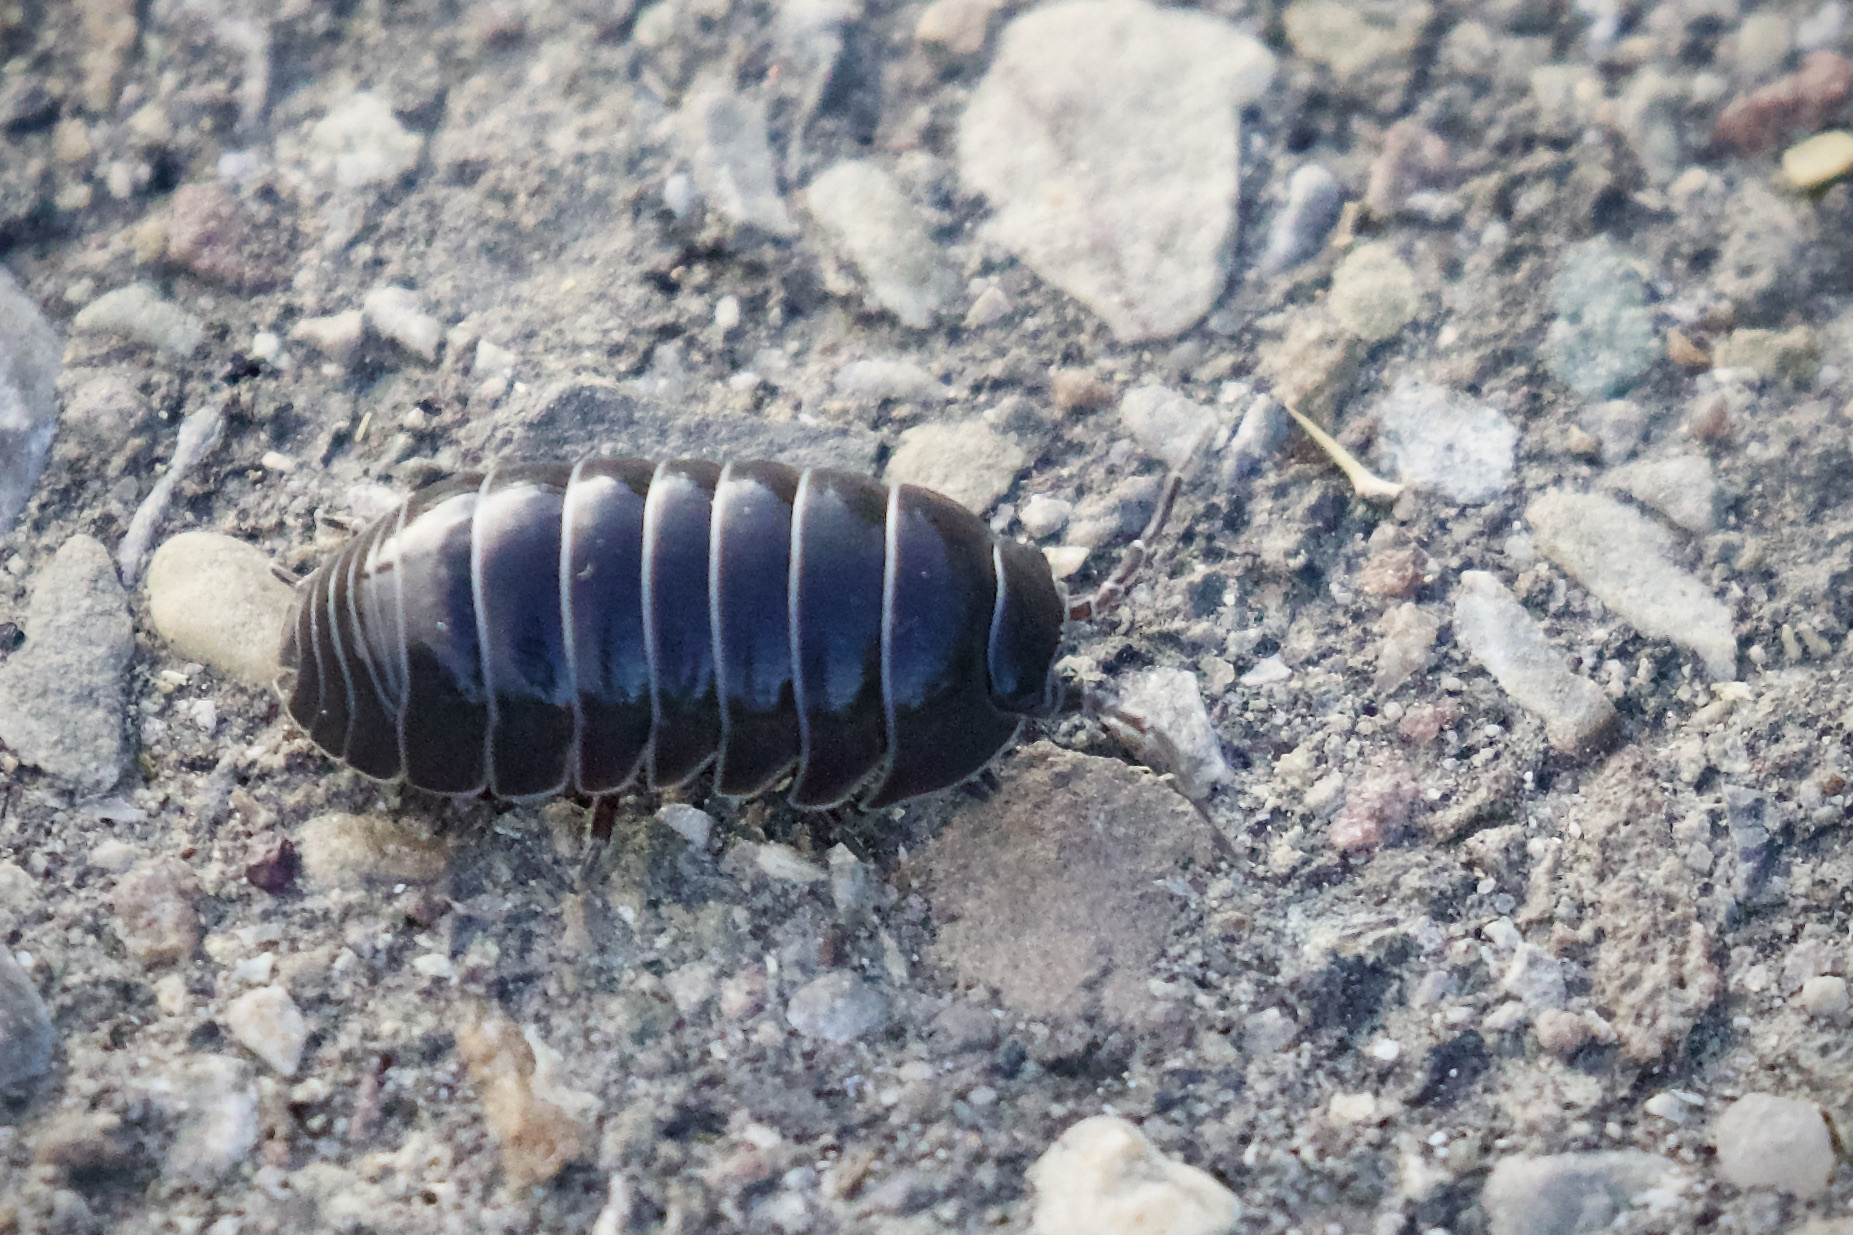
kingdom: Animalia
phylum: Arthropoda
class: Malacostraca
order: Isopoda
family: Armadillidiidae
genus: Armadillidium
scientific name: Armadillidium vulgare
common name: Common pill woodlouse
